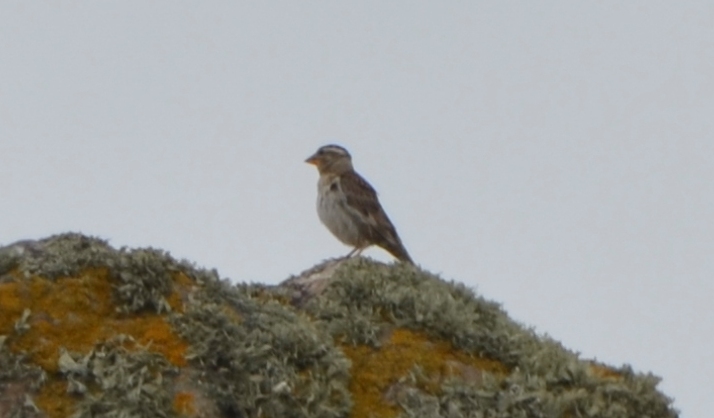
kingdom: Animalia
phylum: Chordata
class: Aves
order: Passeriformes
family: Passeridae
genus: Petronia
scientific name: Petronia petronia
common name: Rock sparrow
